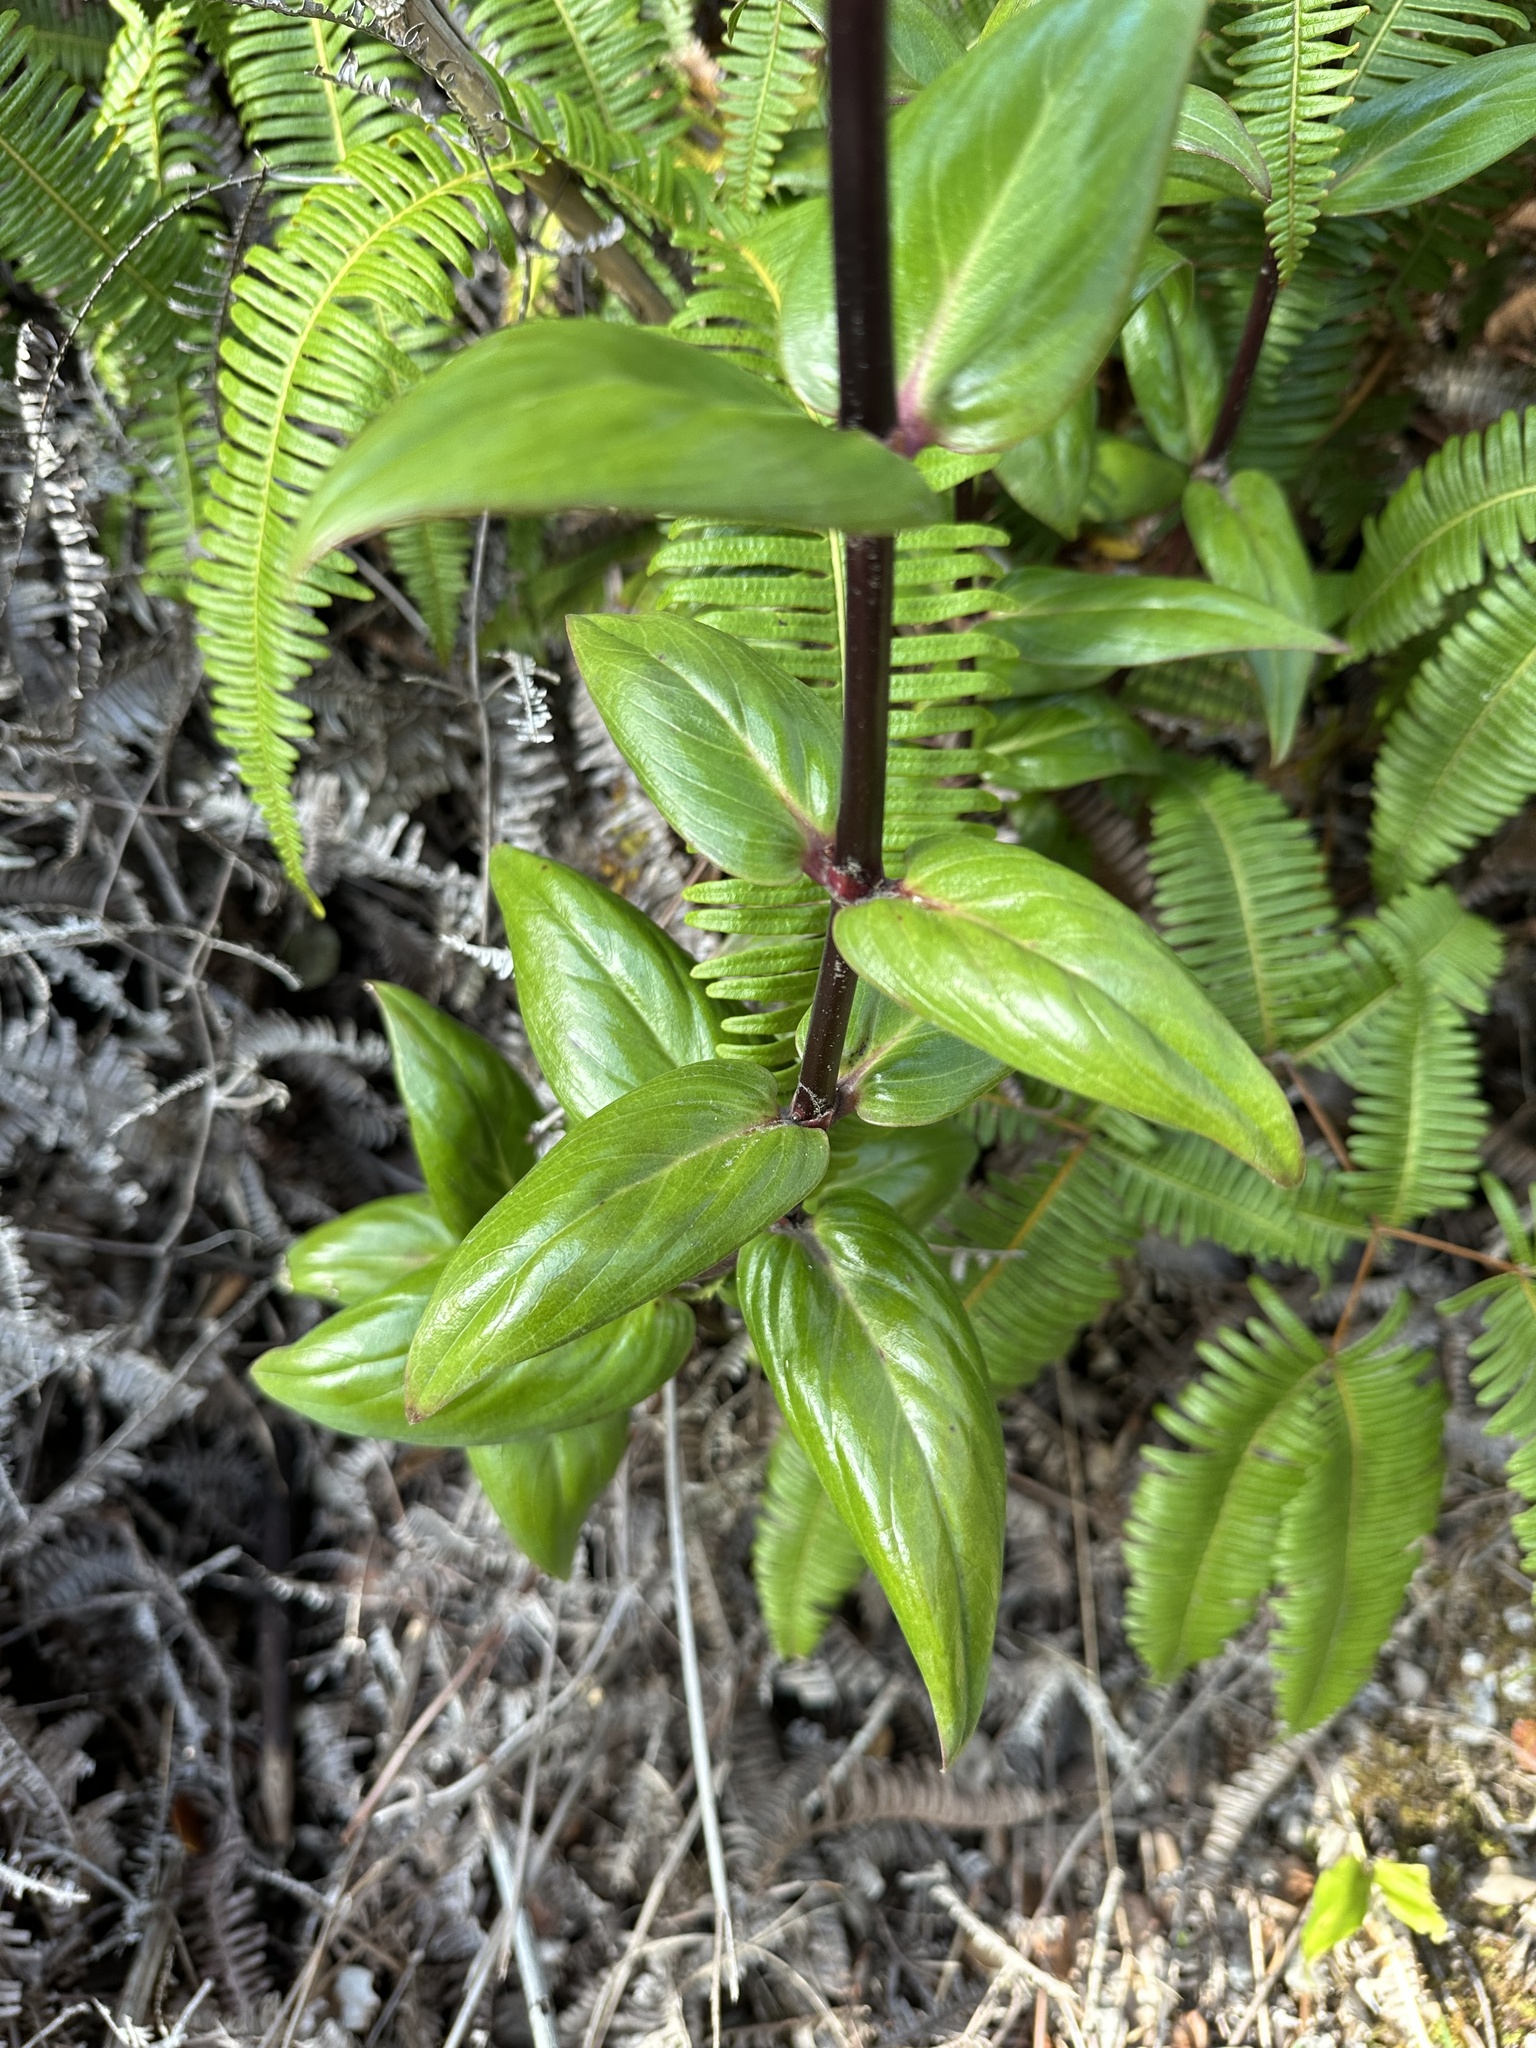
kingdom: Plantae
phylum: Tracheophyta
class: Magnoliopsida
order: Gentianales
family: Rubiaceae
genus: Kadua
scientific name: Kadua centranthoides
